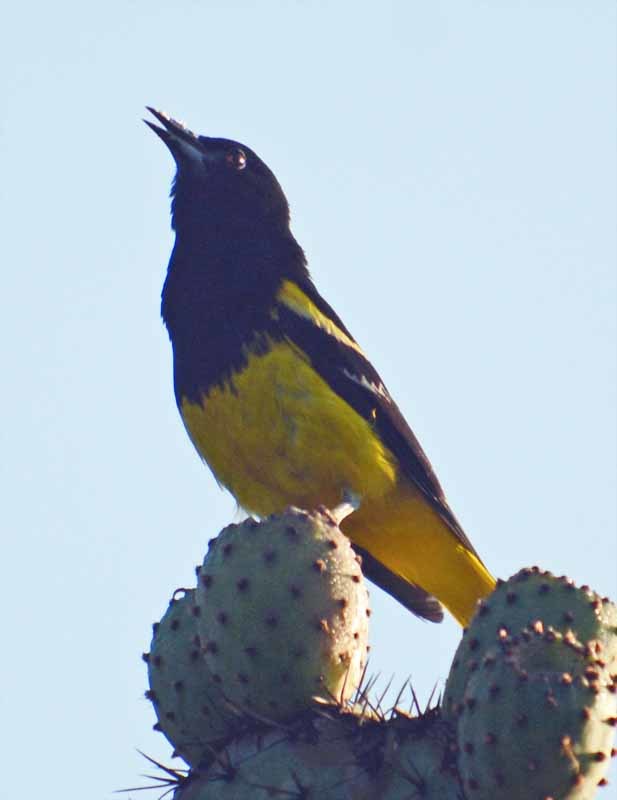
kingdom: Animalia
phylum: Chordata
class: Aves
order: Passeriformes
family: Icteridae
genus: Icterus
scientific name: Icterus parisorum
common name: Scott's oriole
